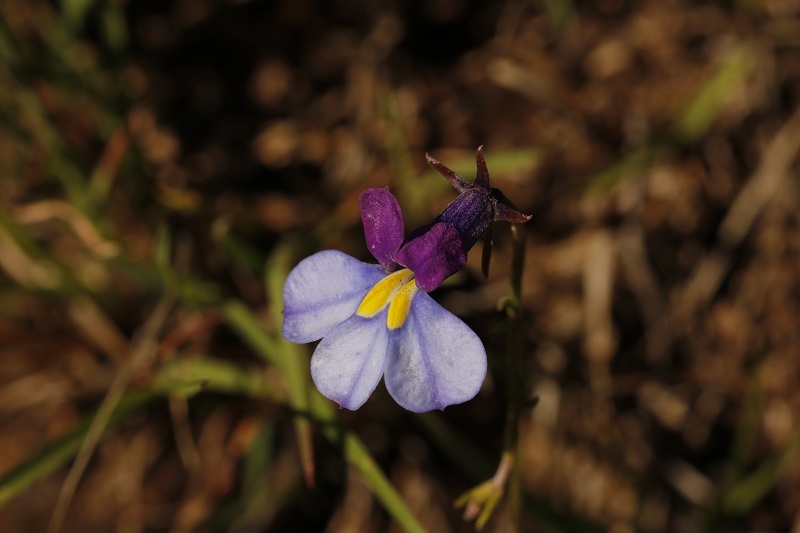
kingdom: Plantae
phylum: Tracheophyta
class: Magnoliopsida
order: Asterales
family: Campanulaceae
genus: Monopsis
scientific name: Monopsis decipiens
